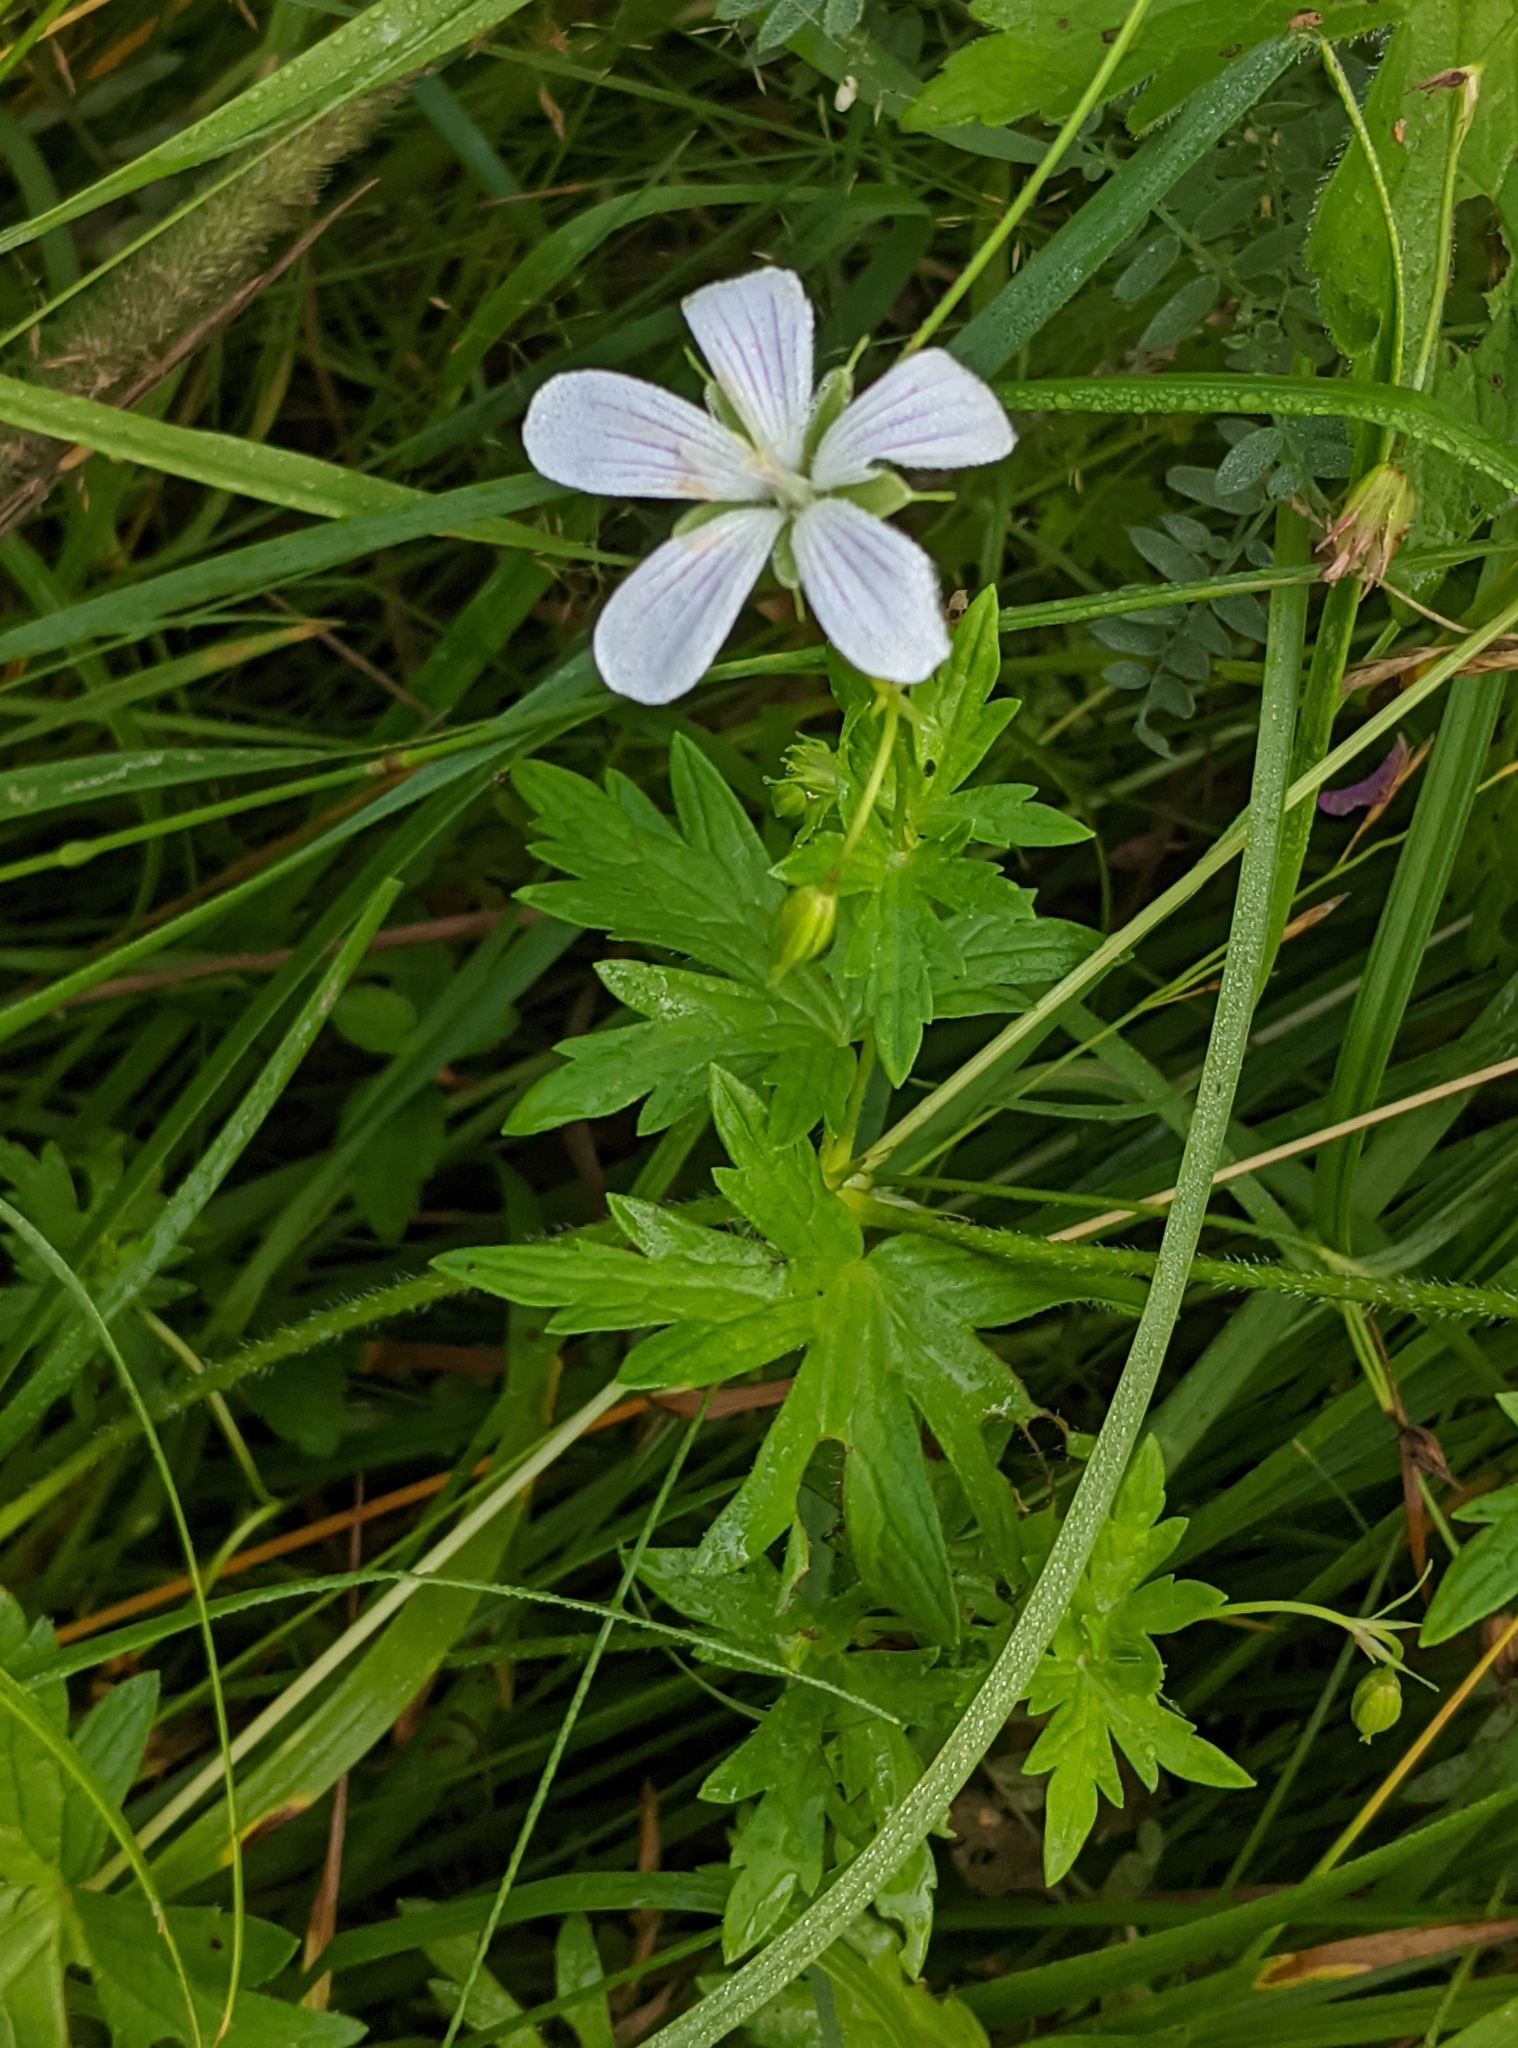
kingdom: Plantae
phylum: Tracheophyta
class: Magnoliopsida
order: Geraniales
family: Geraniaceae
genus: Geranium
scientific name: Geranium palustre
